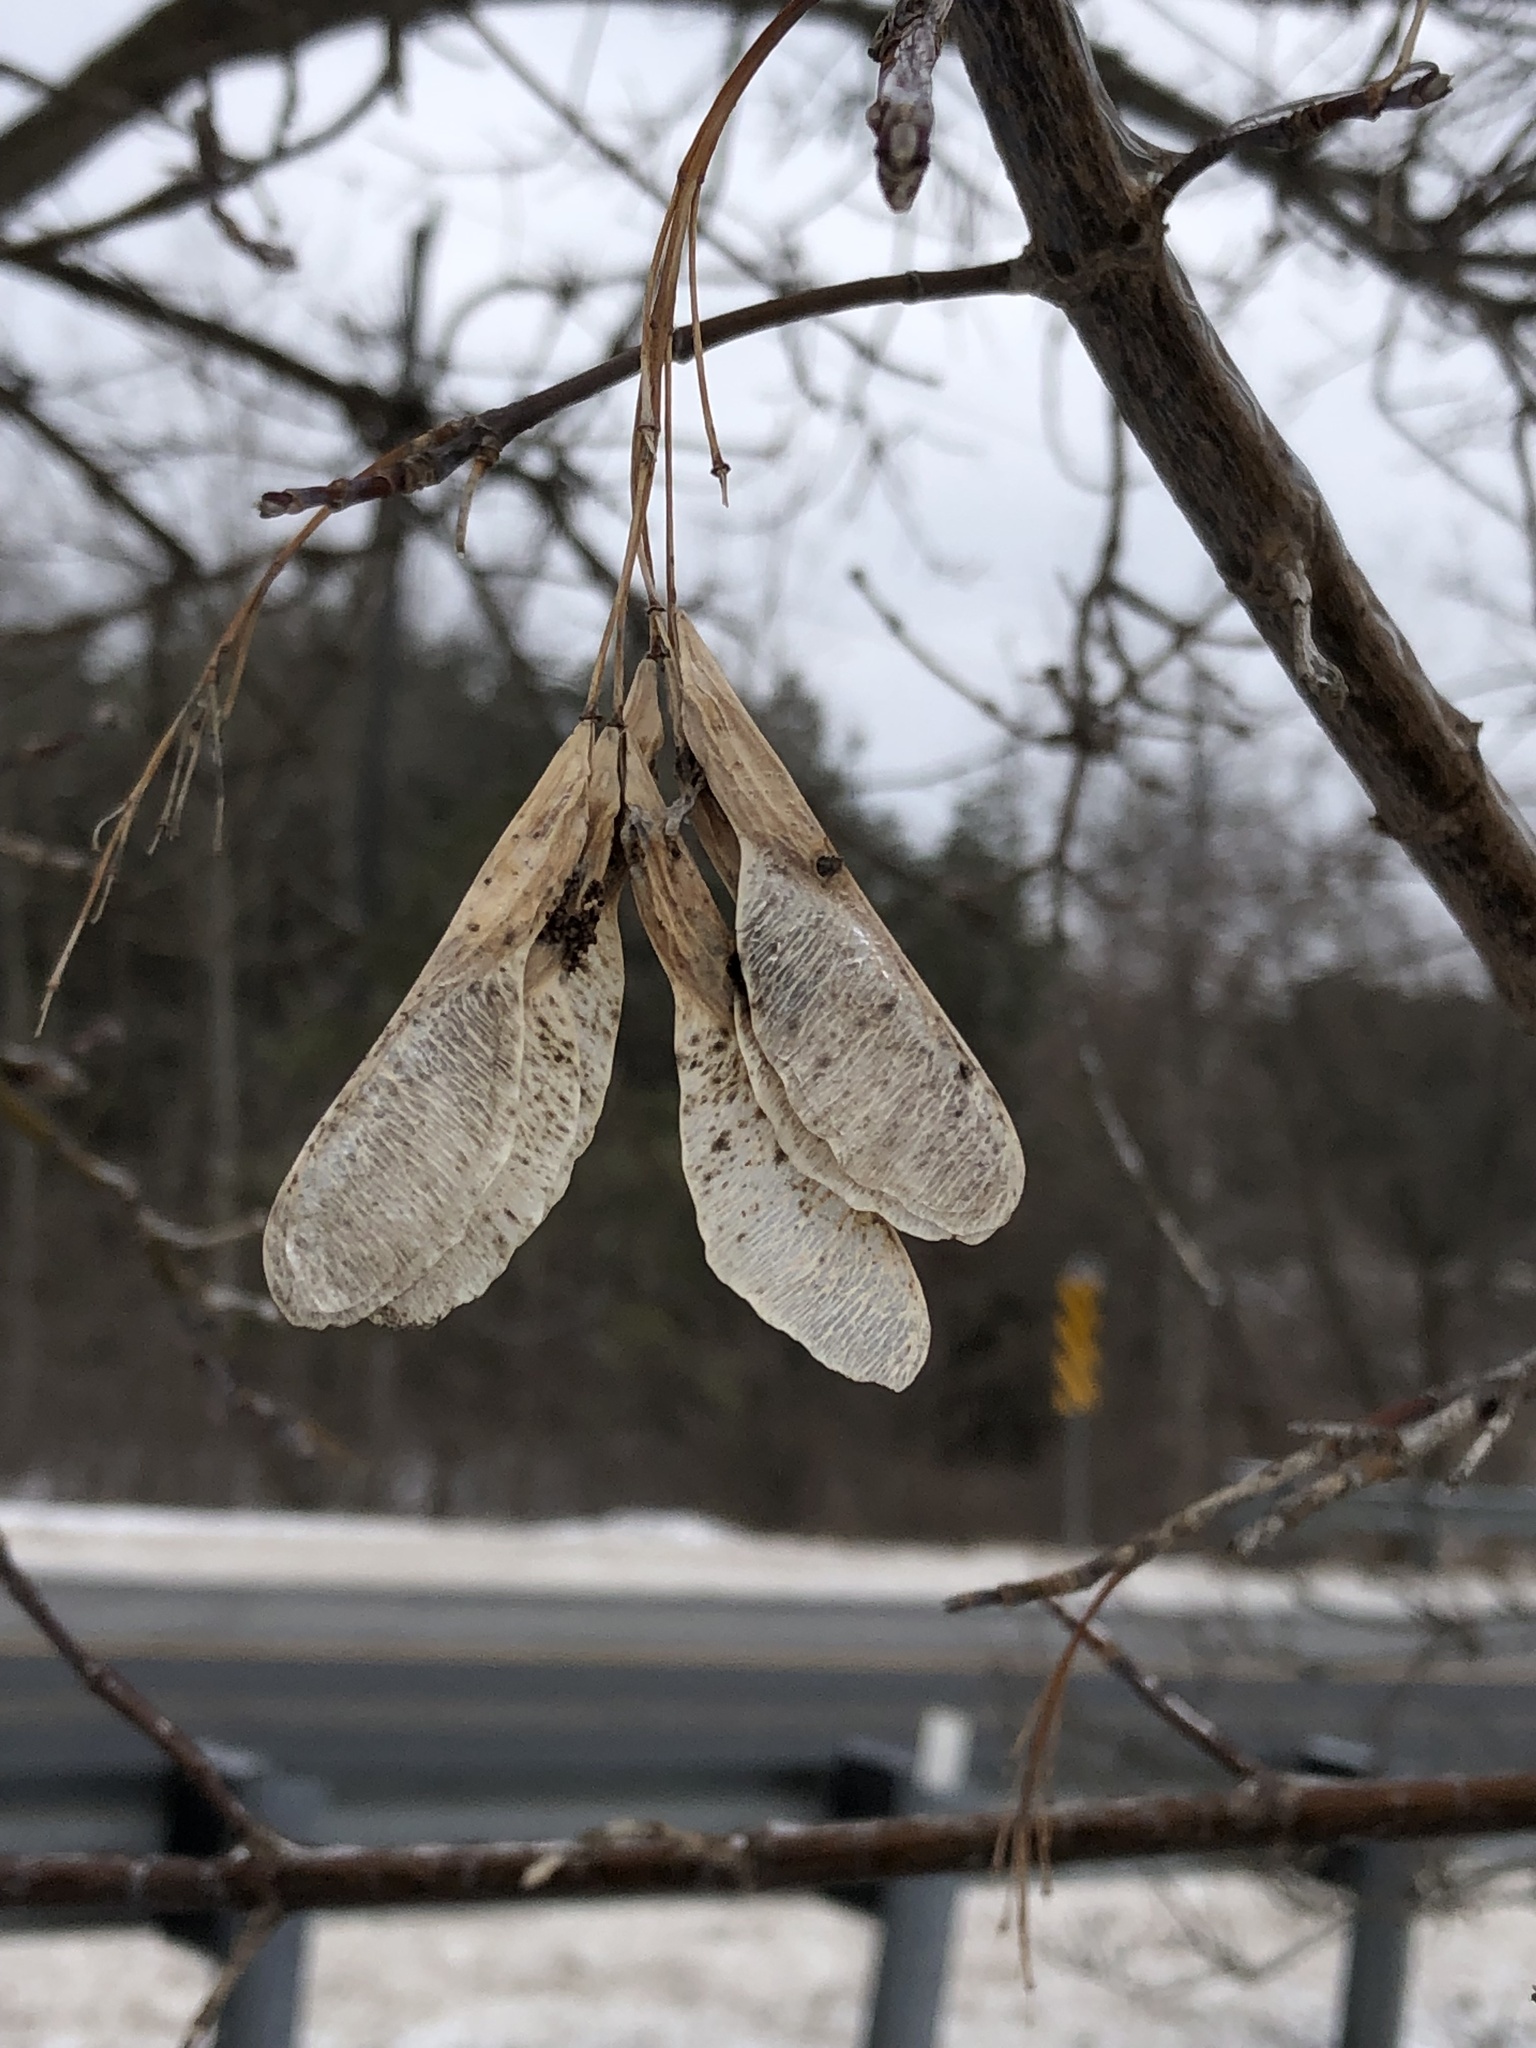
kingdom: Plantae
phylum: Tracheophyta
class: Magnoliopsida
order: Sapindales
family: Sapindaceae
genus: Acer
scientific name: Acer negundo
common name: Ashleaf maple
